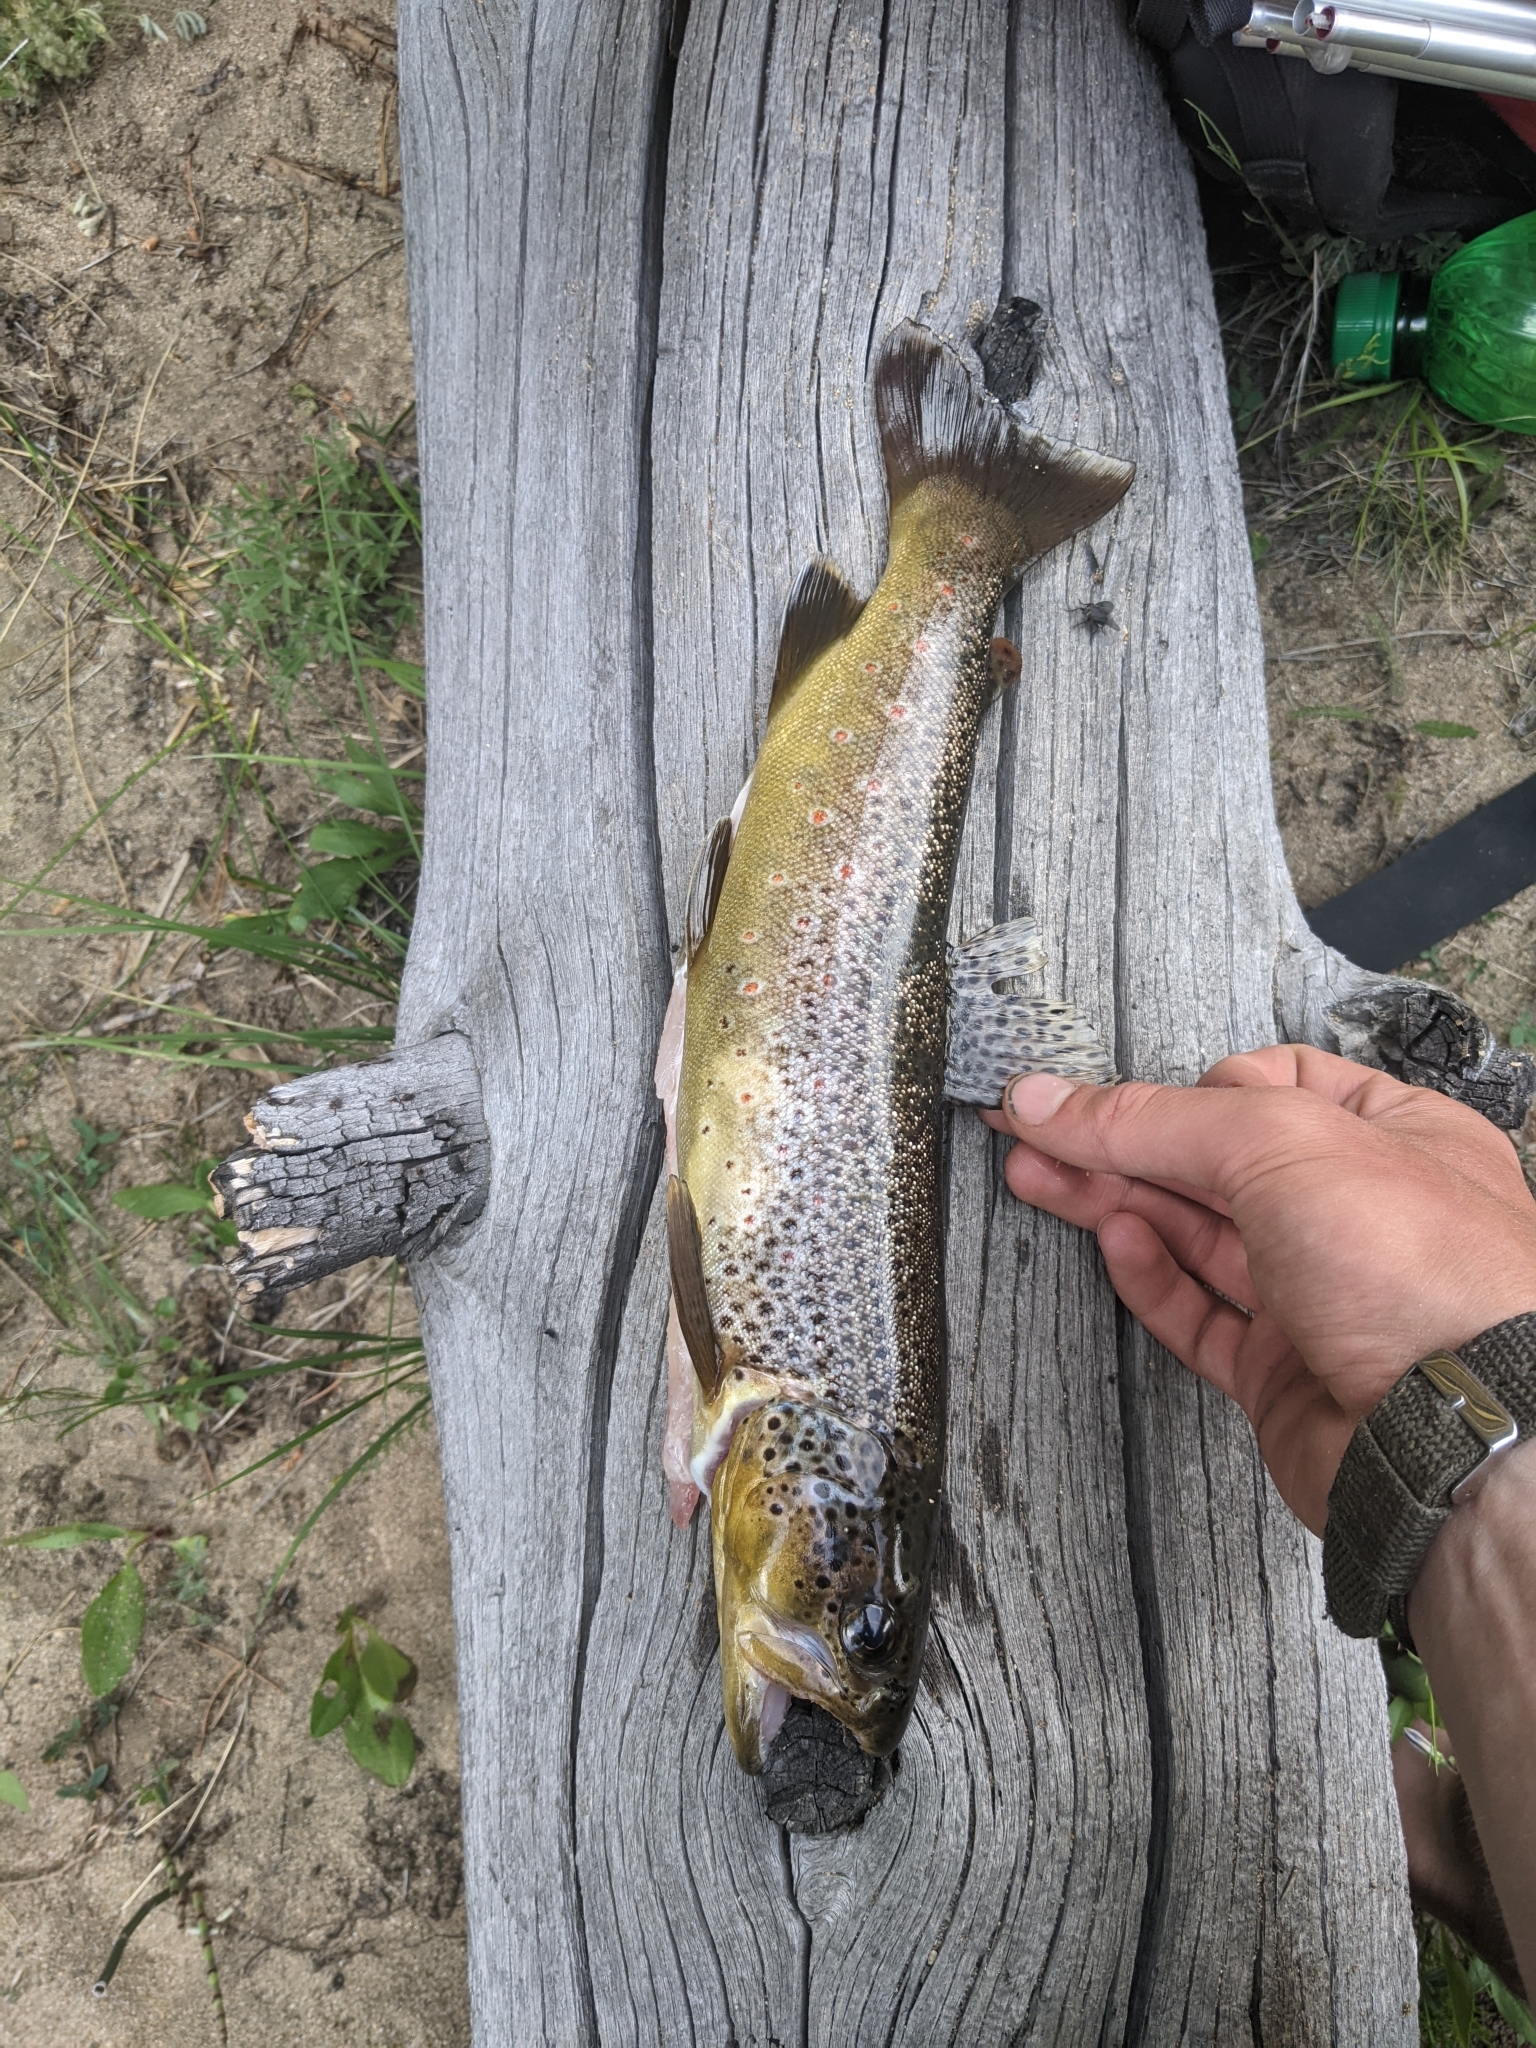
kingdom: Animalia
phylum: Chordata
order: Salmoniformes
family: Salmonidae
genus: Salmo
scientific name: Salmo trutta
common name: Brown trout
